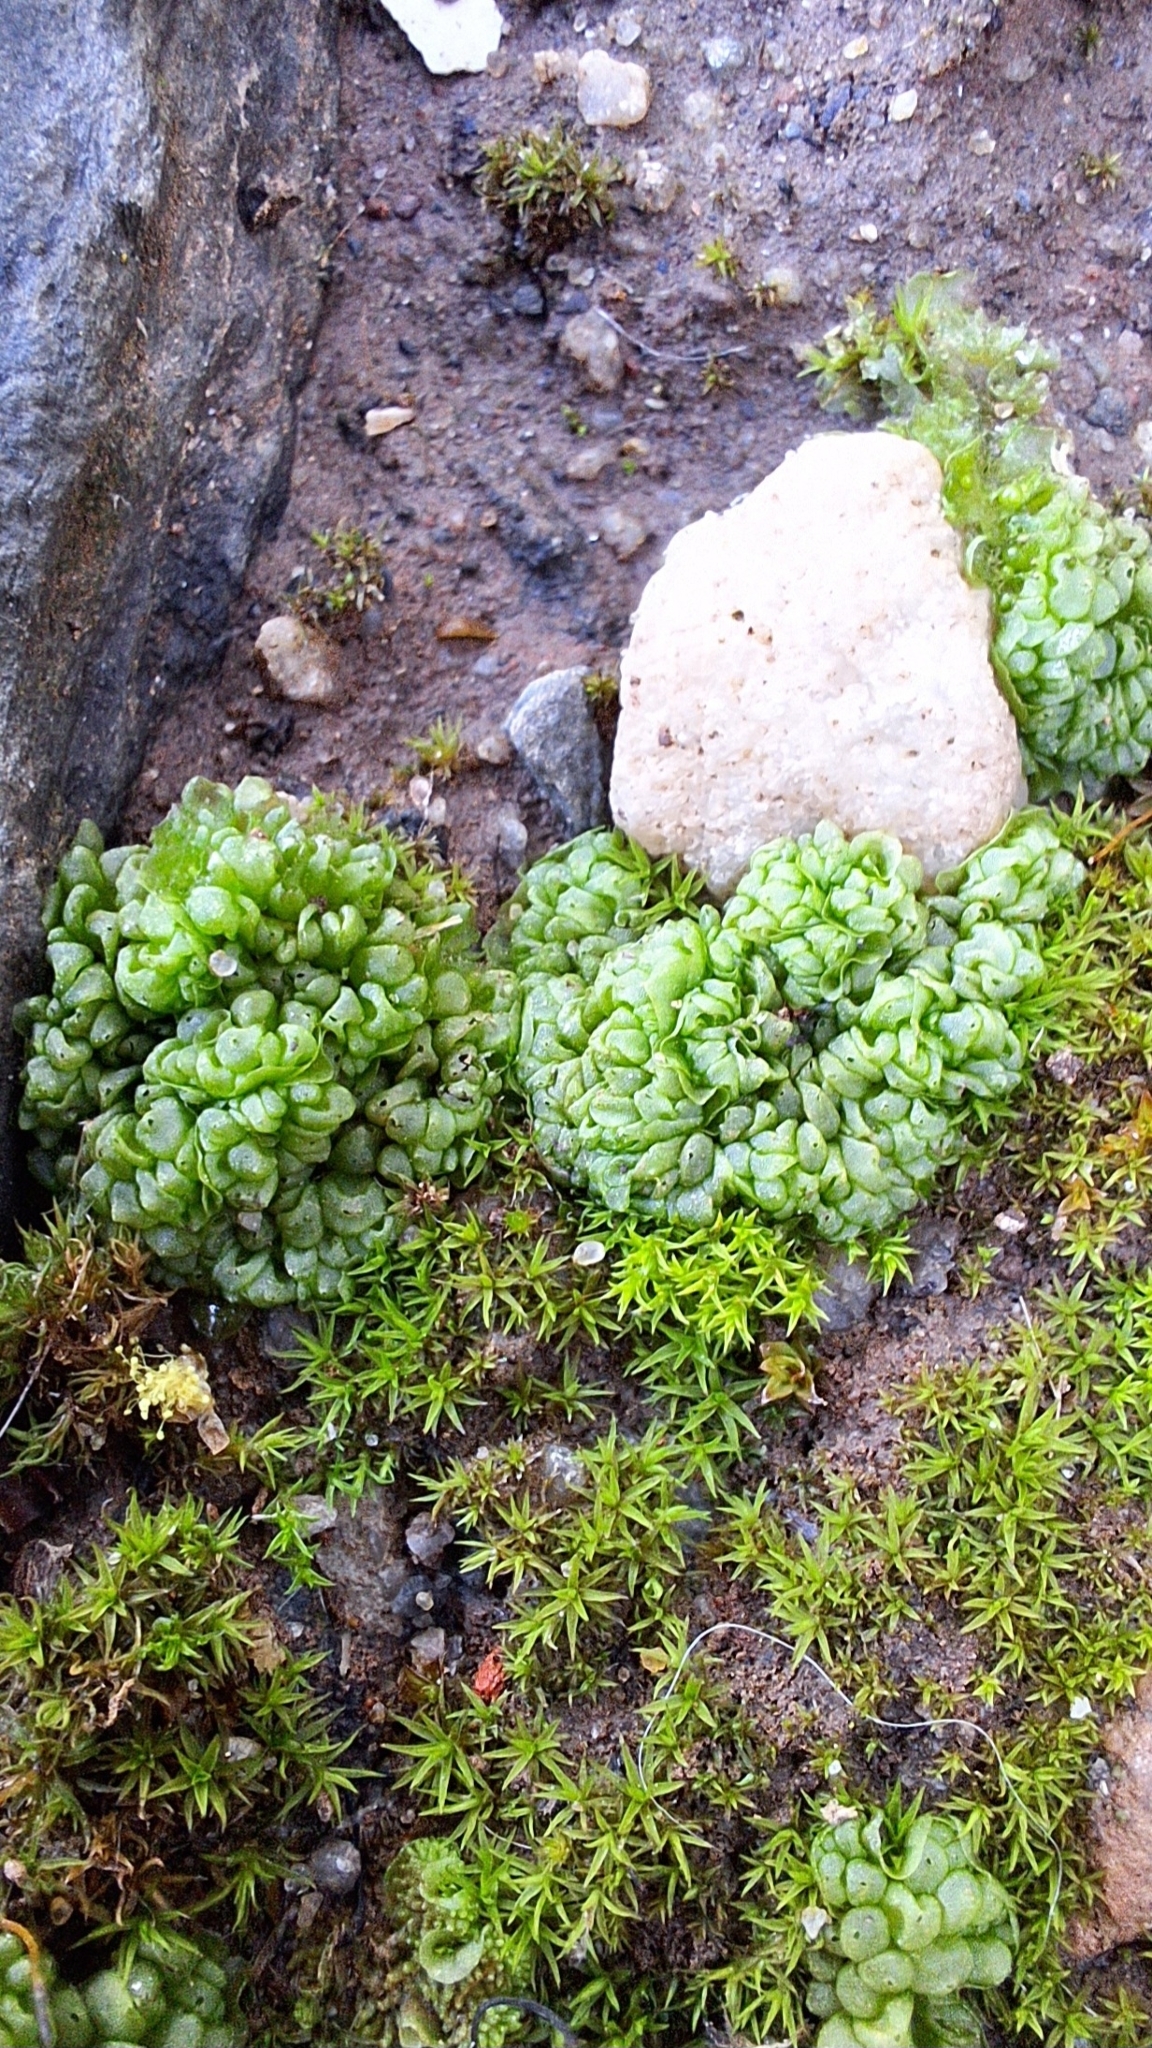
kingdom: Plantae
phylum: Marchantiophyta
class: Marchantiopsida
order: Sphaerocarpales
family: Sphaerocarpaceae
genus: Sphaerocarpos
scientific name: Sphaerocarpos texanus
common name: Texas balloonwort
